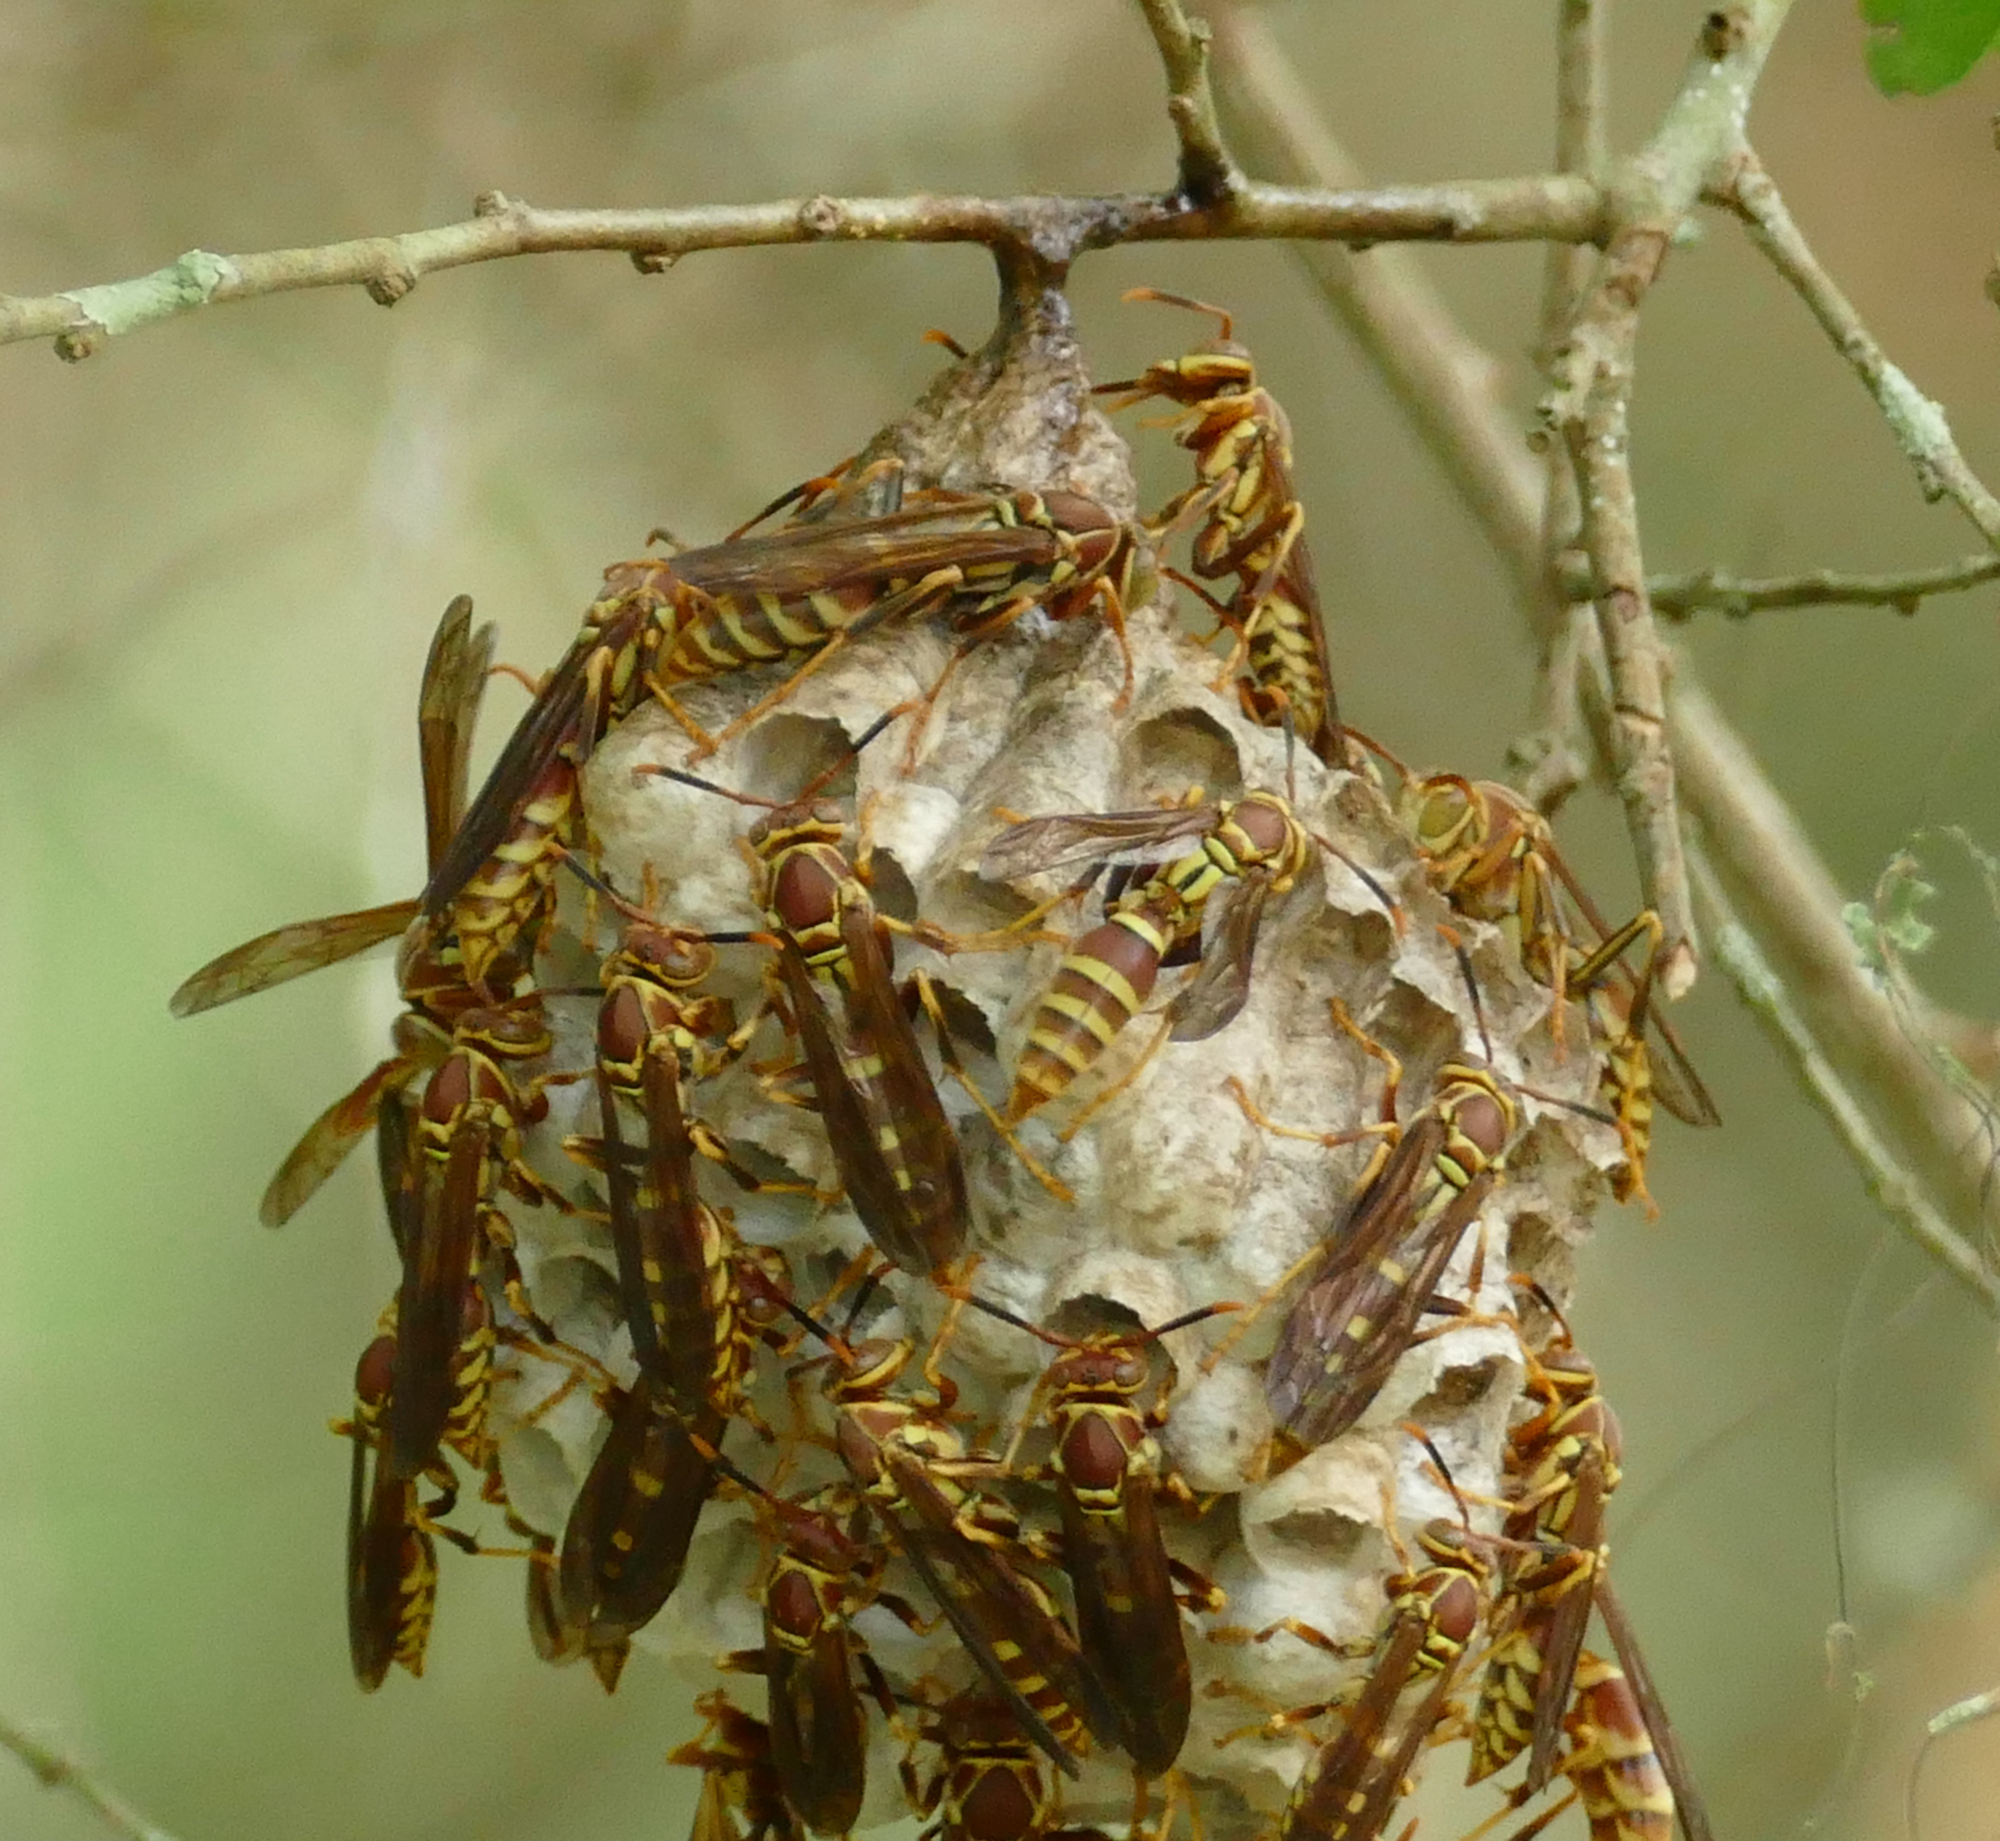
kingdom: Animalia
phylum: Arthropoda
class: Insecta
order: Hymenoptera
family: Eumenidae
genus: Polistes
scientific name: Polistes exclamans
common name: Paper wasp
